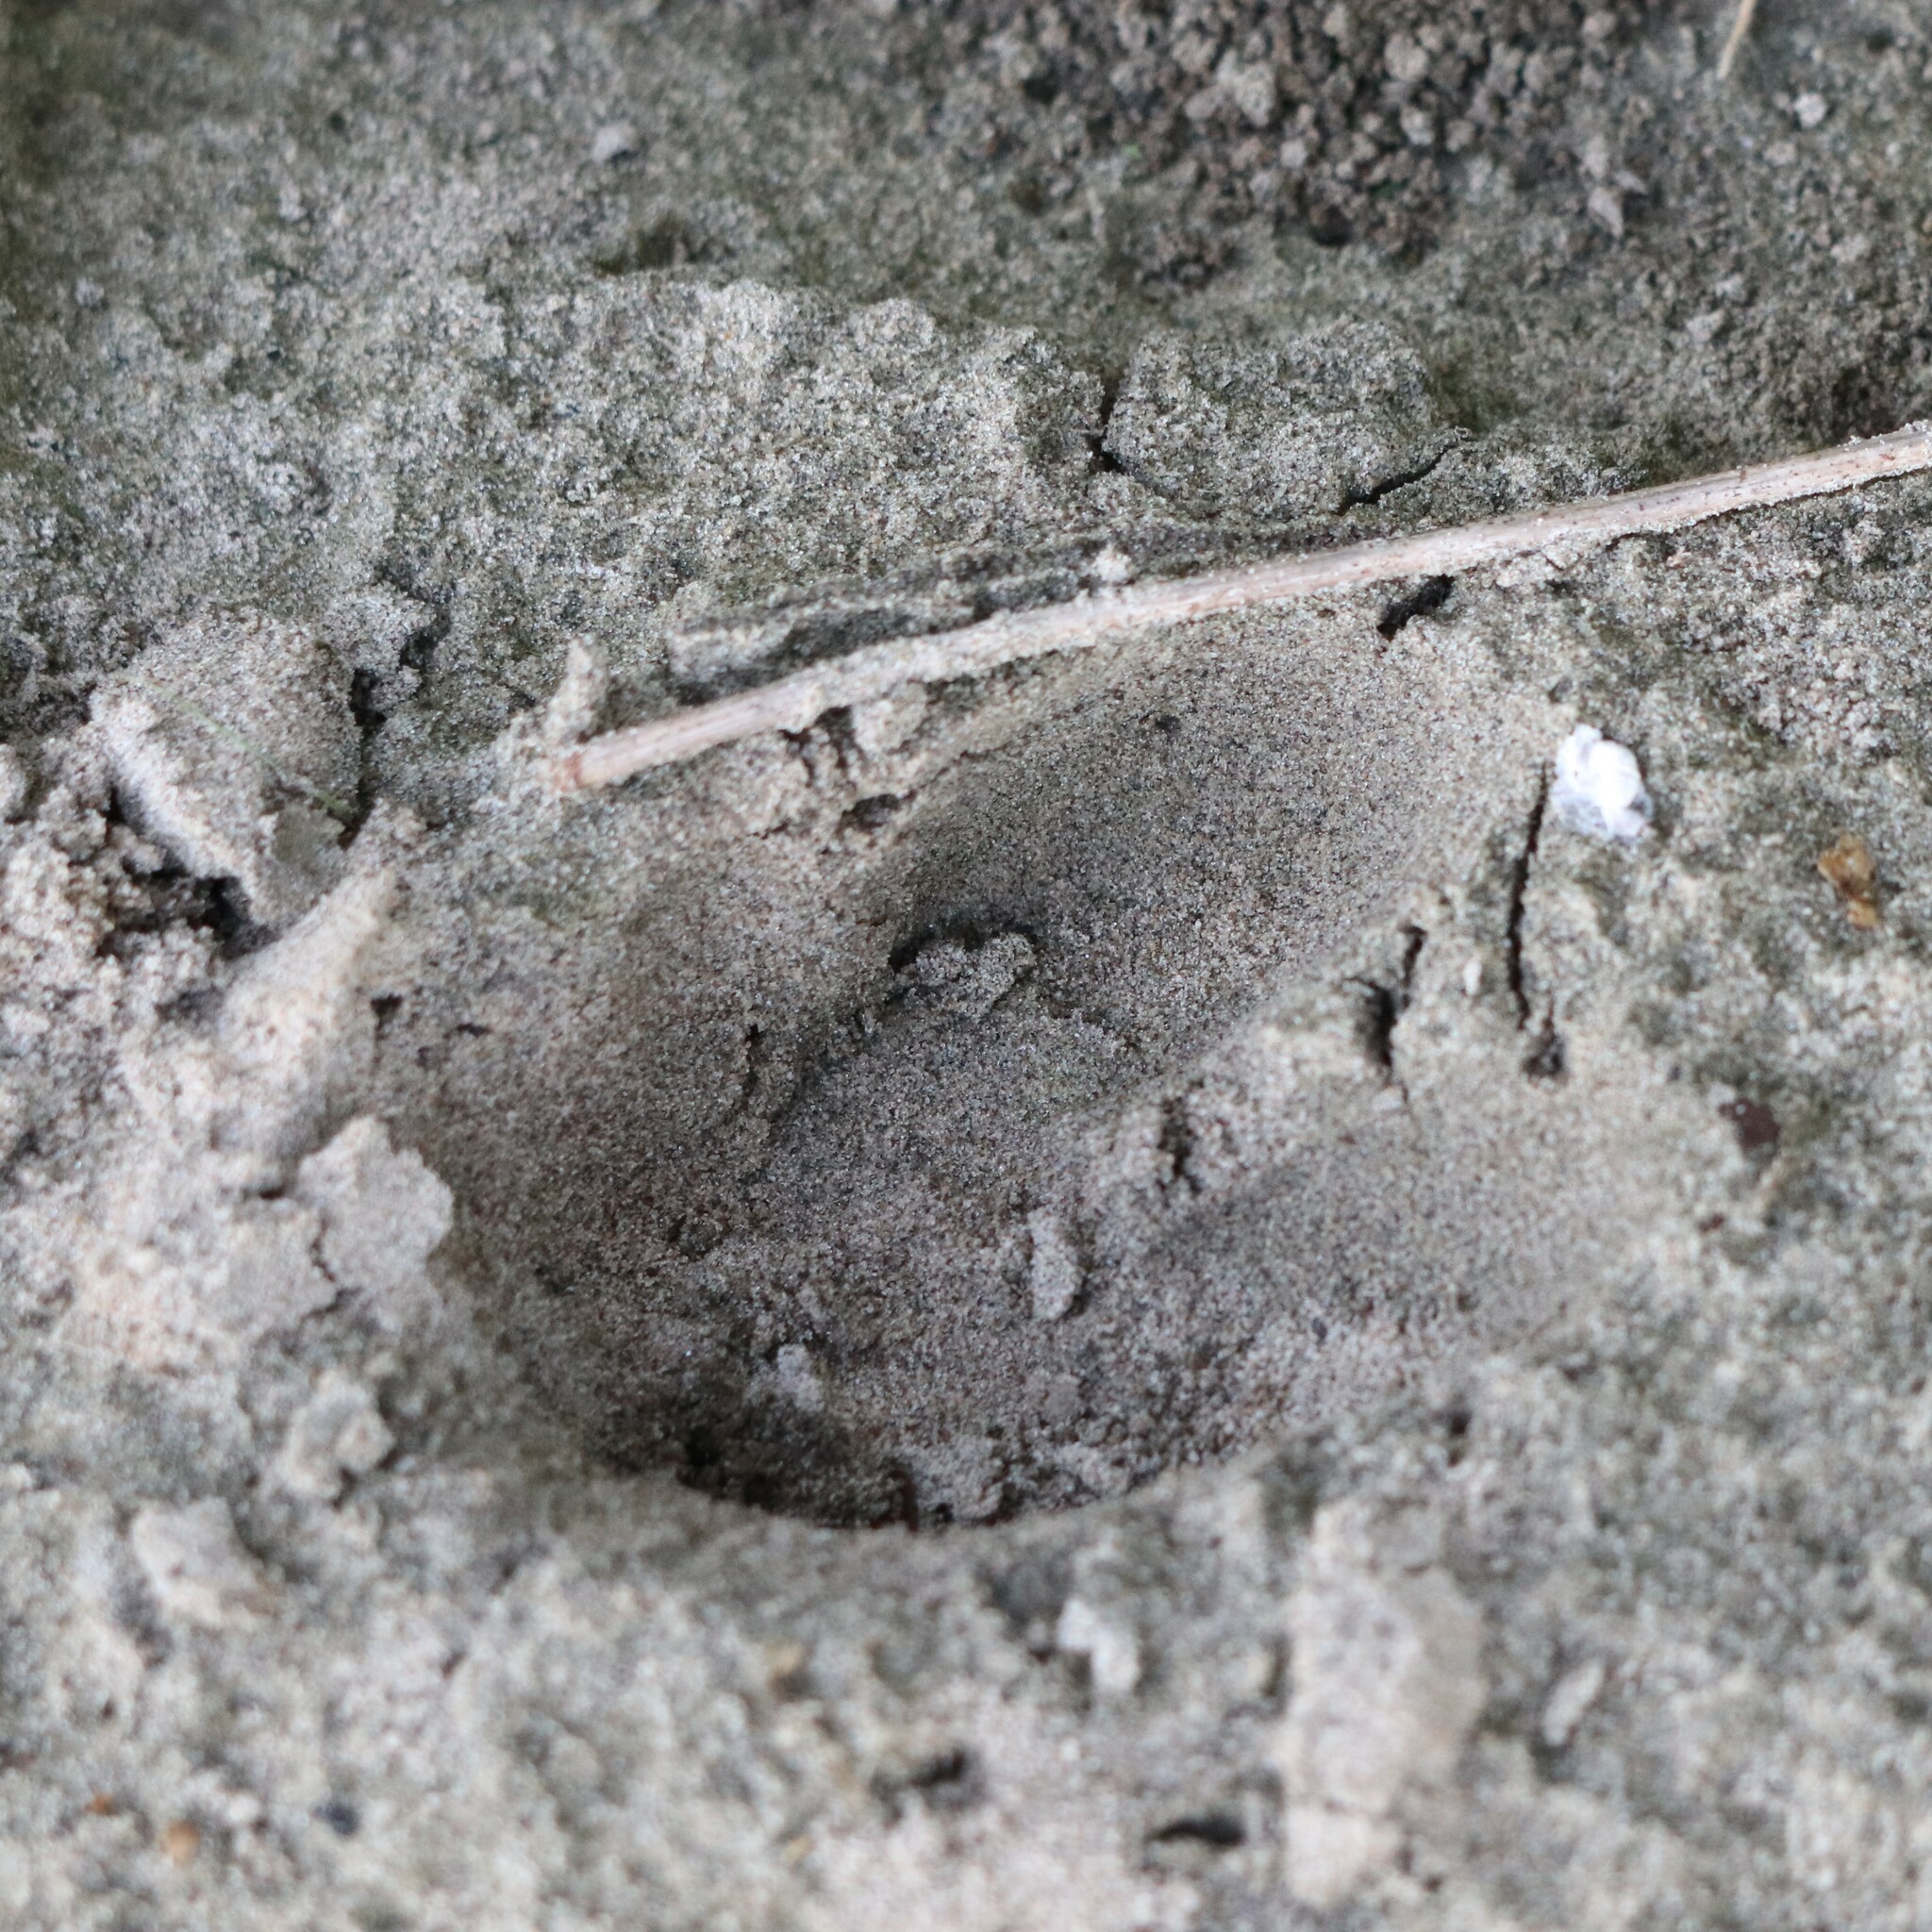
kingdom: Animalia
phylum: Chordata
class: Mammalia
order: Artiodactyla
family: Cervidae
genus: Odocoileus
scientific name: Odocoileus virginianus
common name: White-tailed deer
